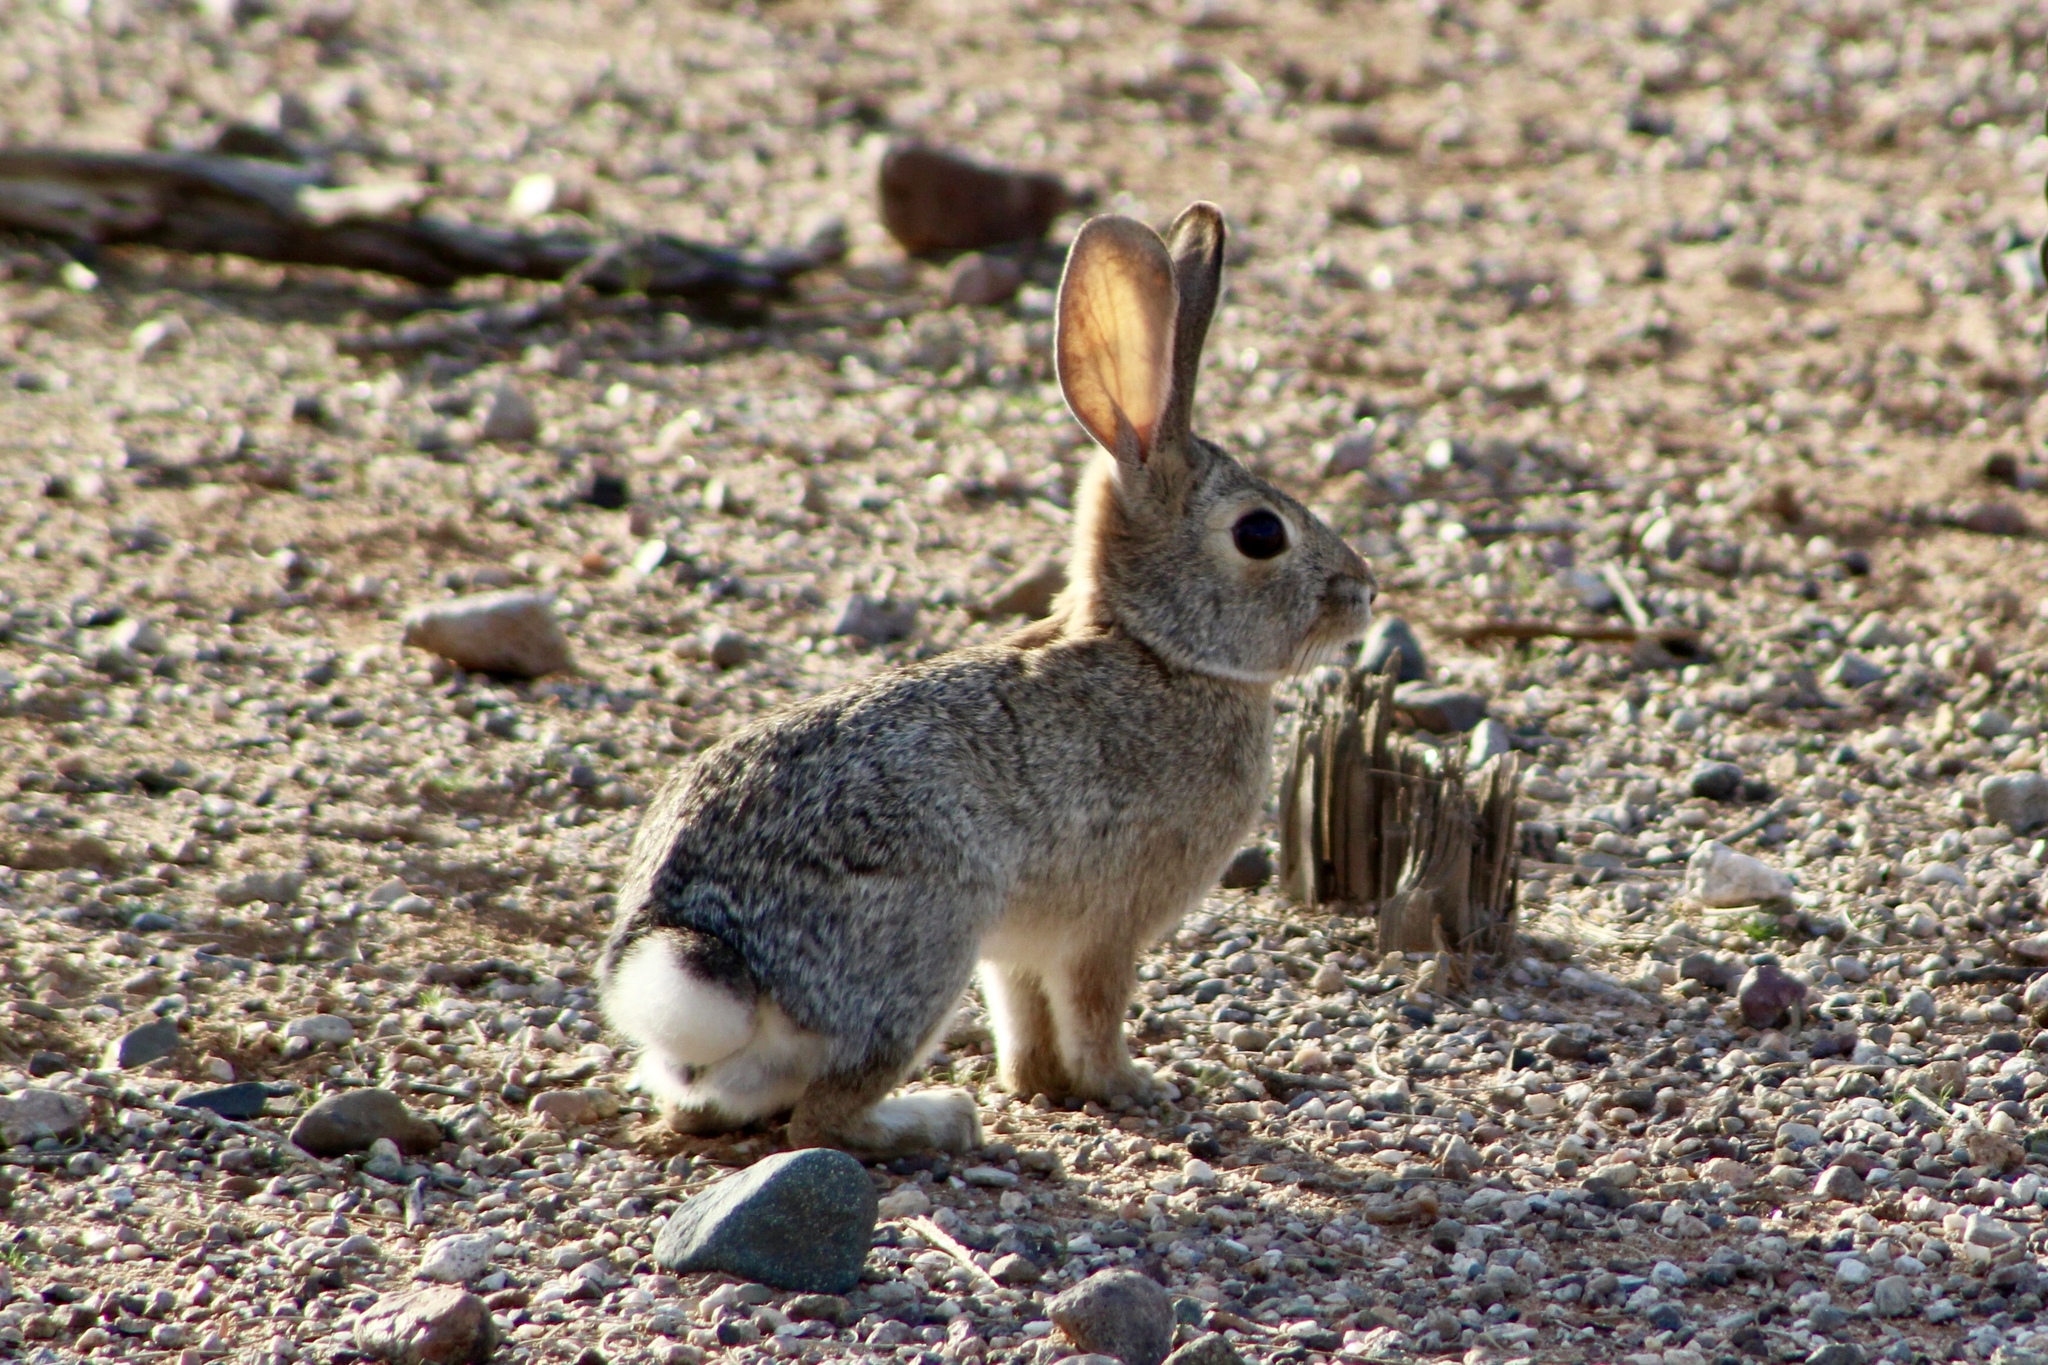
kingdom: Animalia
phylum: Chordata
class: Mammalia
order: Lagomorpha
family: Leporidae
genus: Sylvilagus
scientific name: Sylvilagus audubonii
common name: Desert cottontail
